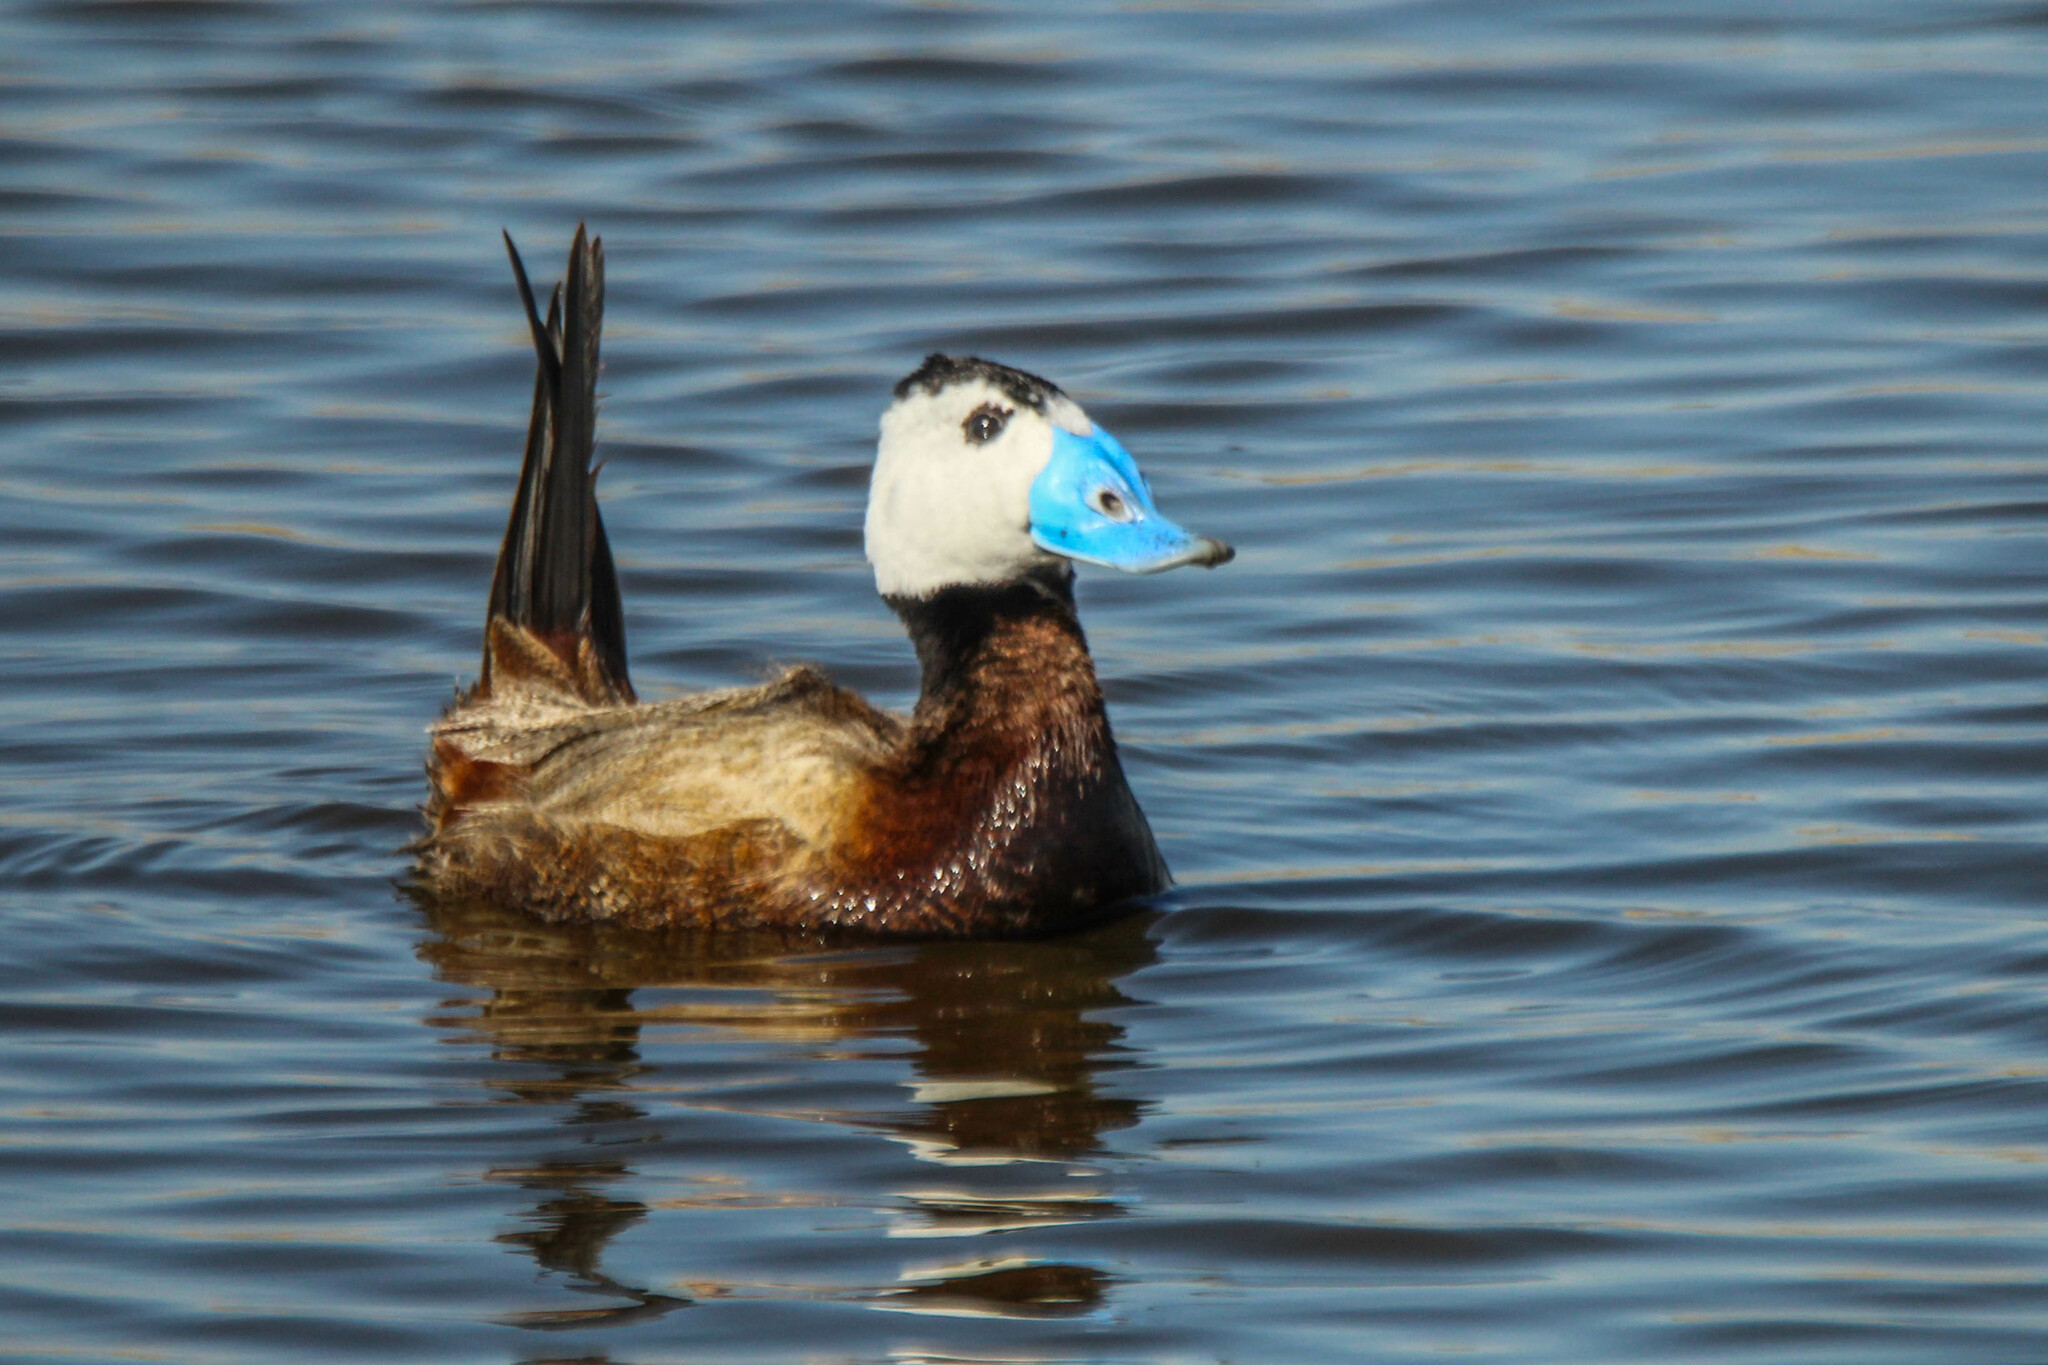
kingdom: Animalia
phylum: Chordata
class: Aves
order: Anseriformes
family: Anatidae
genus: Oxyura
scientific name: Oxyura leucocephala
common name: White-headed duck
